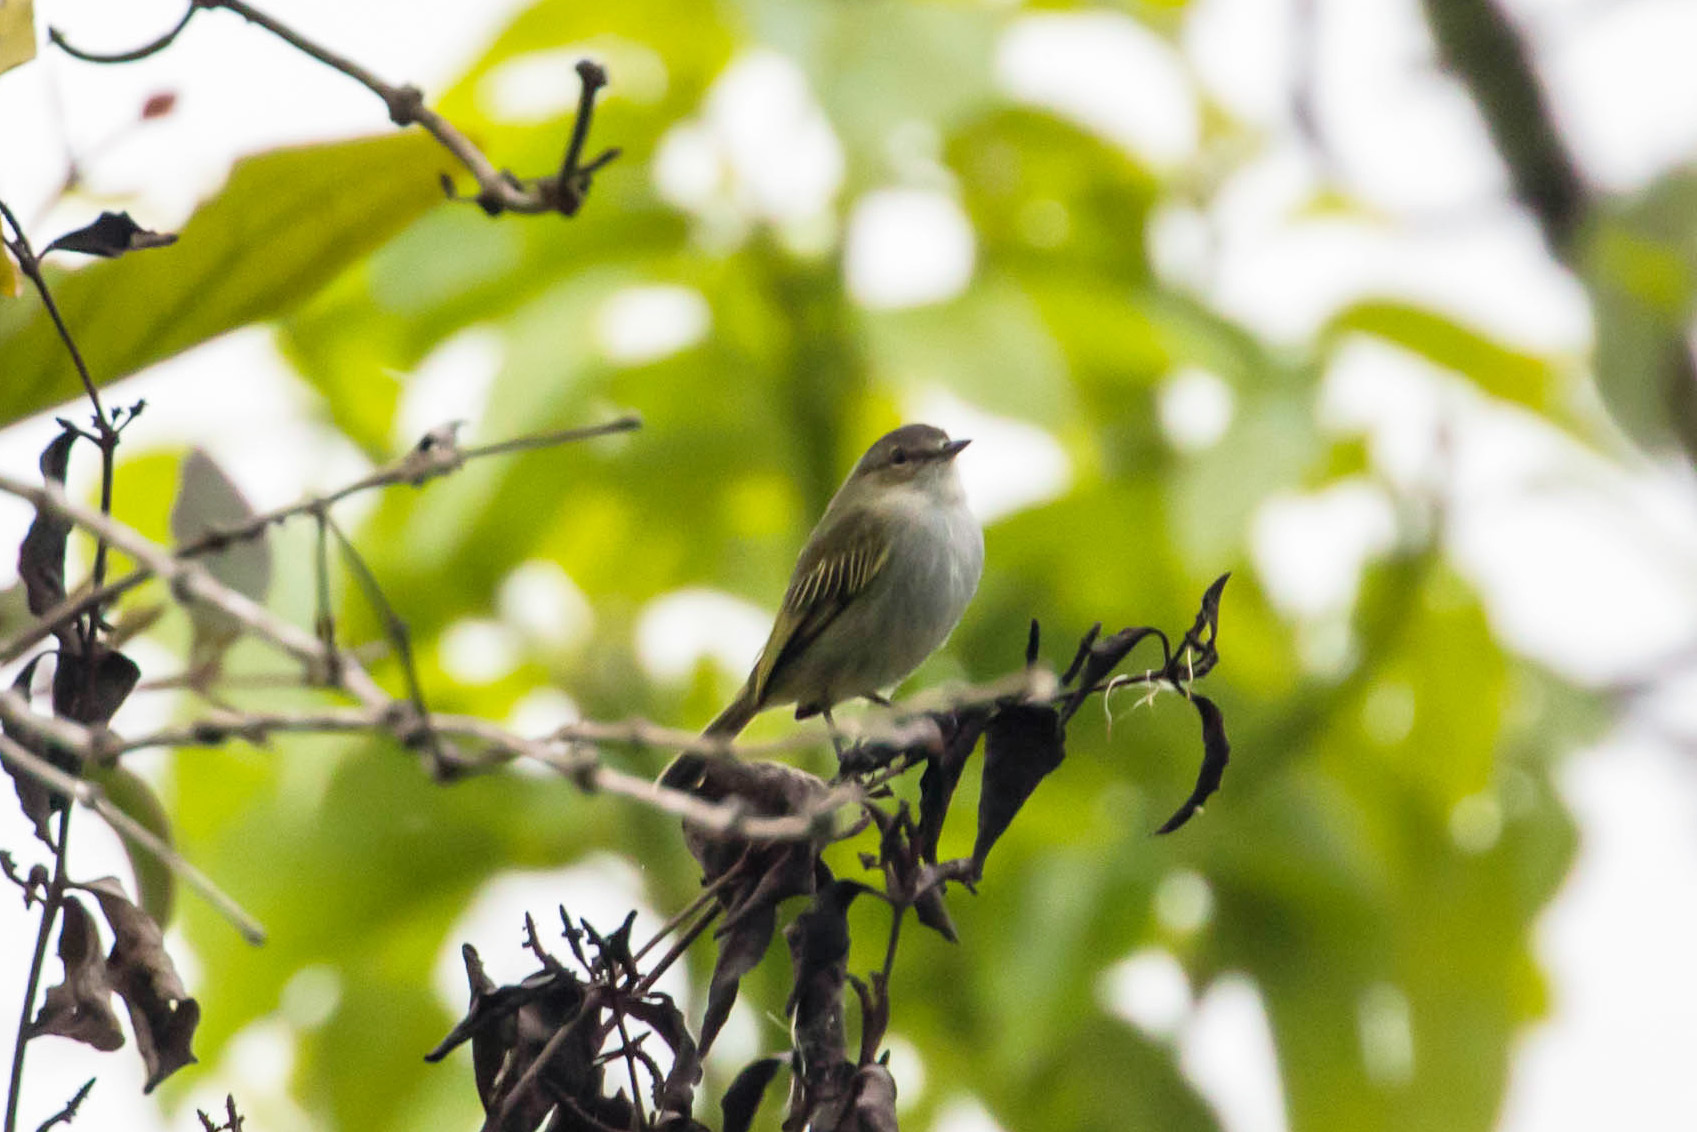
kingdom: Animalia
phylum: Chordata
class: Aves
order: Passeriformes
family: Tyrannidae
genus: Zimmerius
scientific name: Zimmerius vilissimus
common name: Paltry tyrannulet
